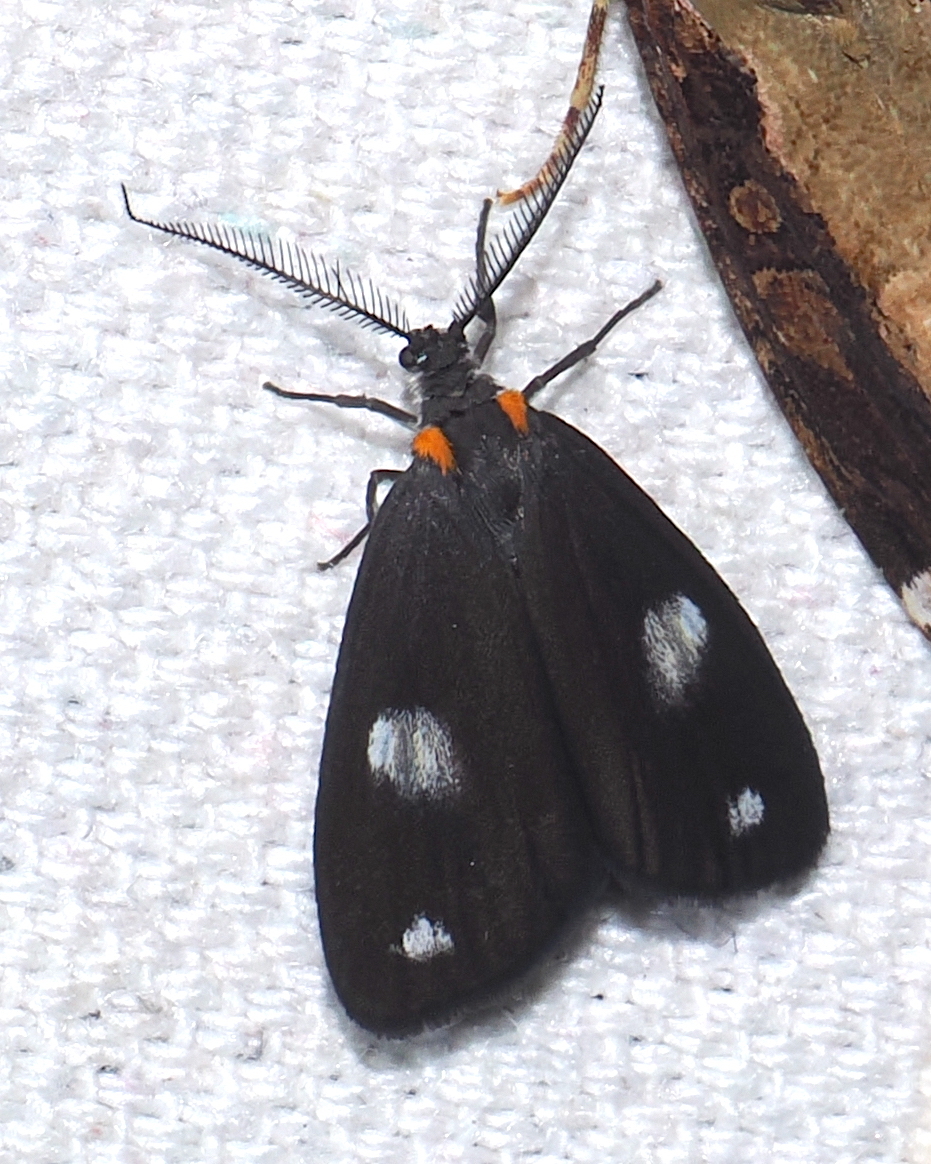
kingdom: Animalia
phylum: Arthropoda
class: Insecta
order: Lepidoptera
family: Notodontidae
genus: Nebulosa
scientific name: Nebulosa
